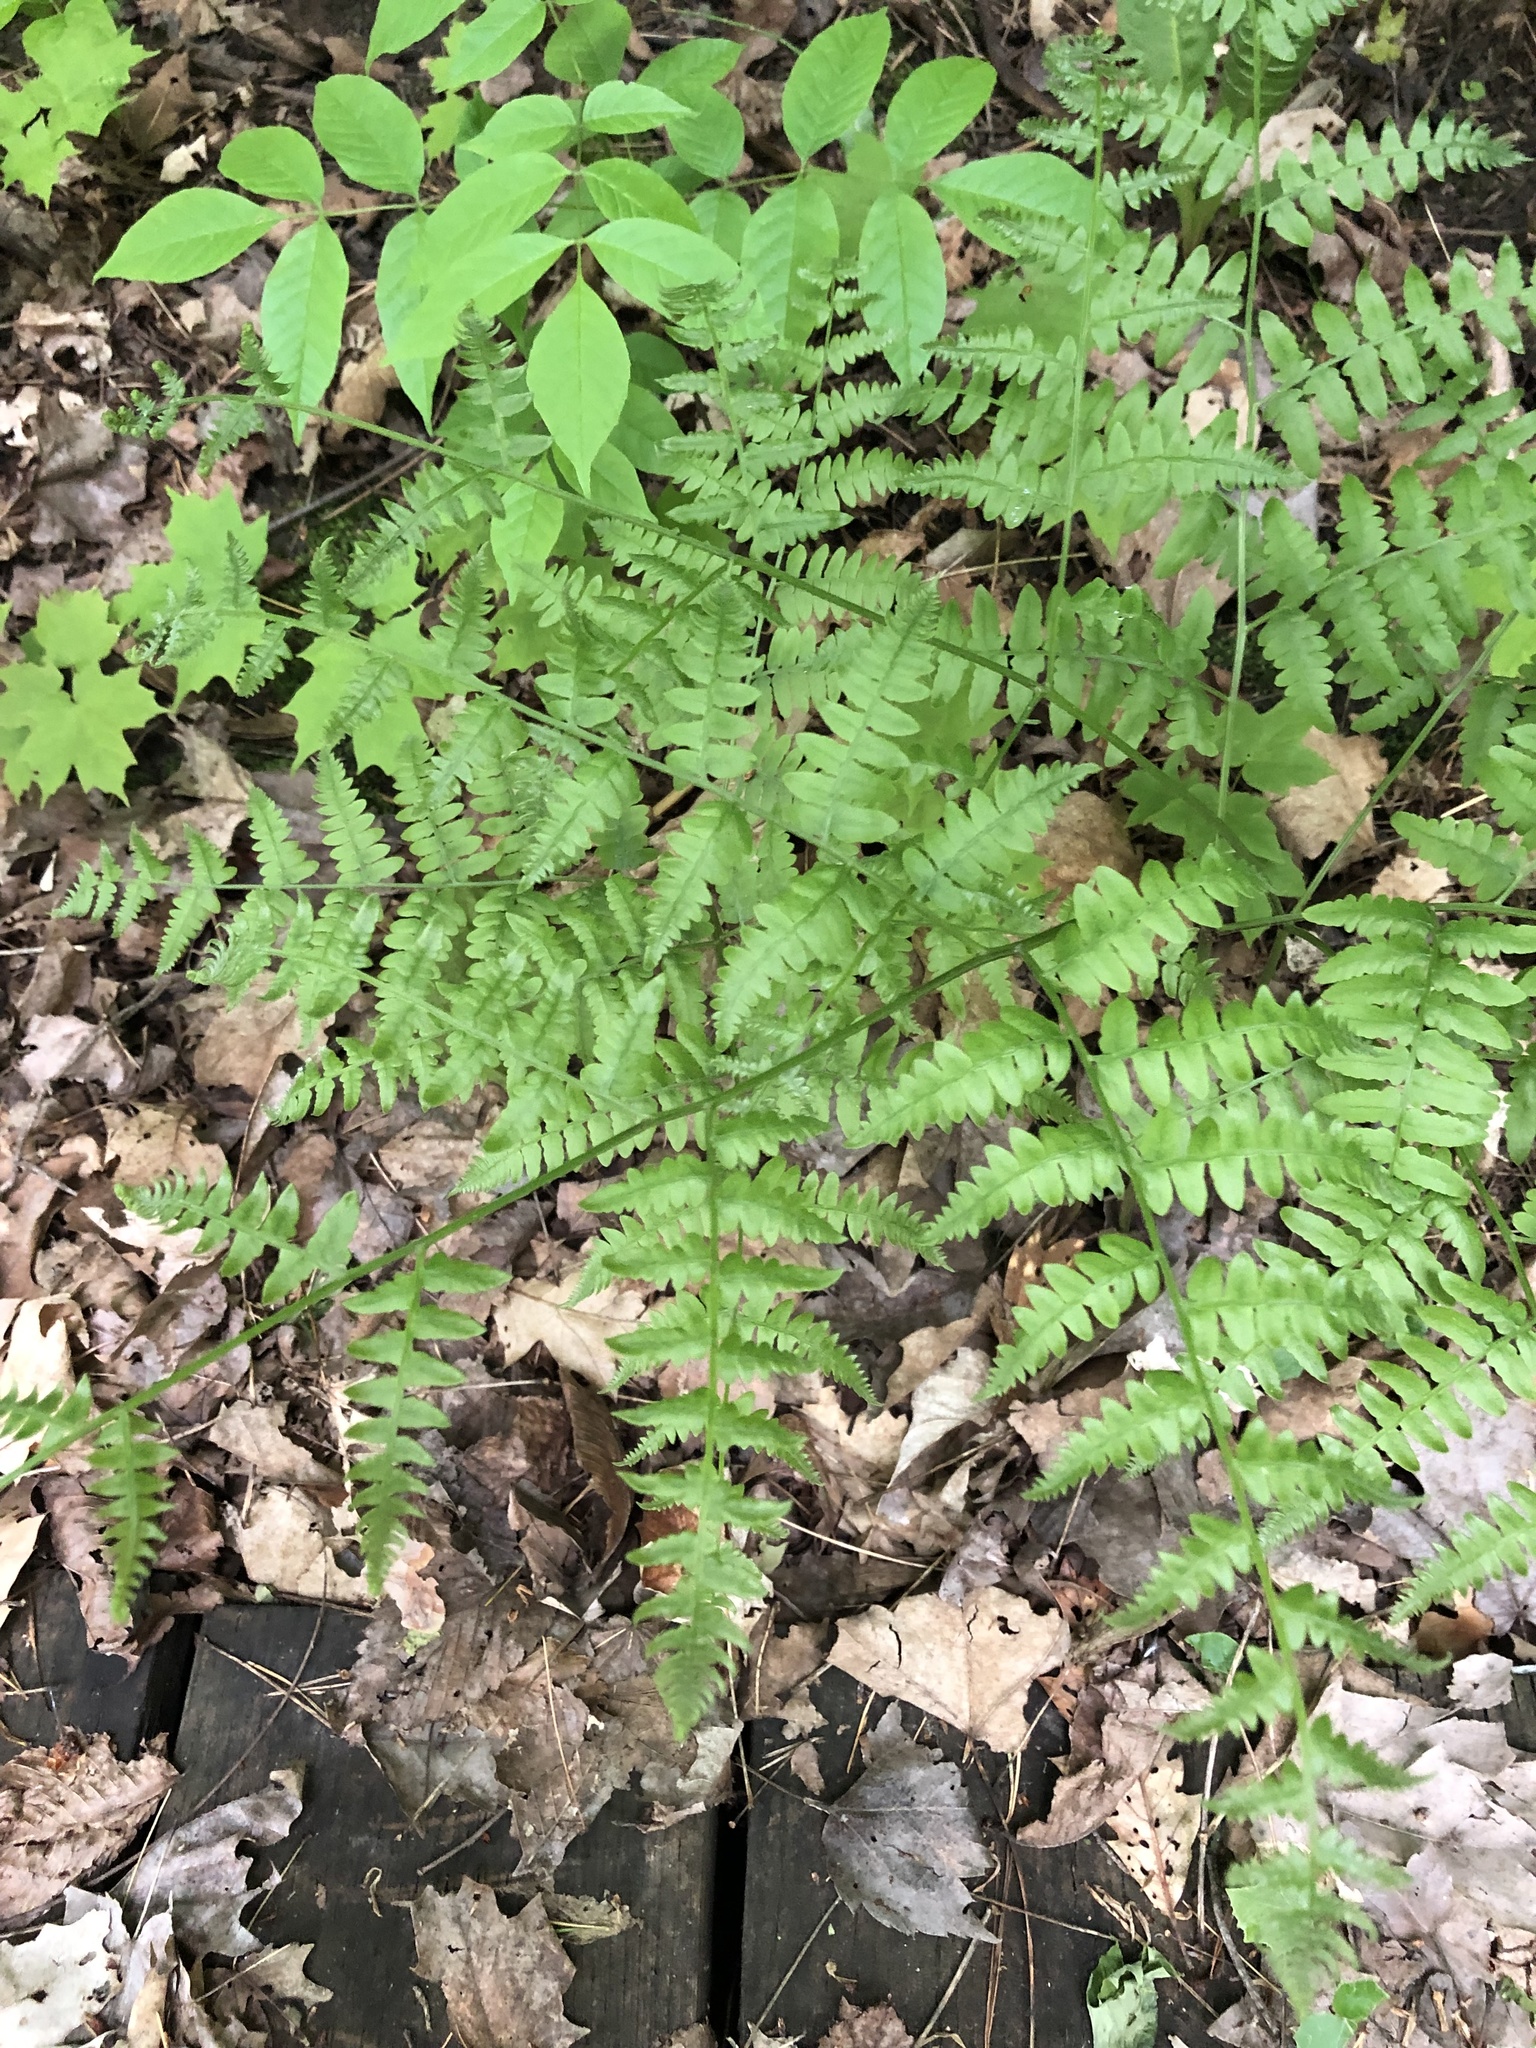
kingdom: Plantae
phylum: Tracheophyta
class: Polypodiopsida
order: Polypodiales
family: Dennstaedtiaceae
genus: Pteridium
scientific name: Pteridium aquilinum
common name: Bracken
